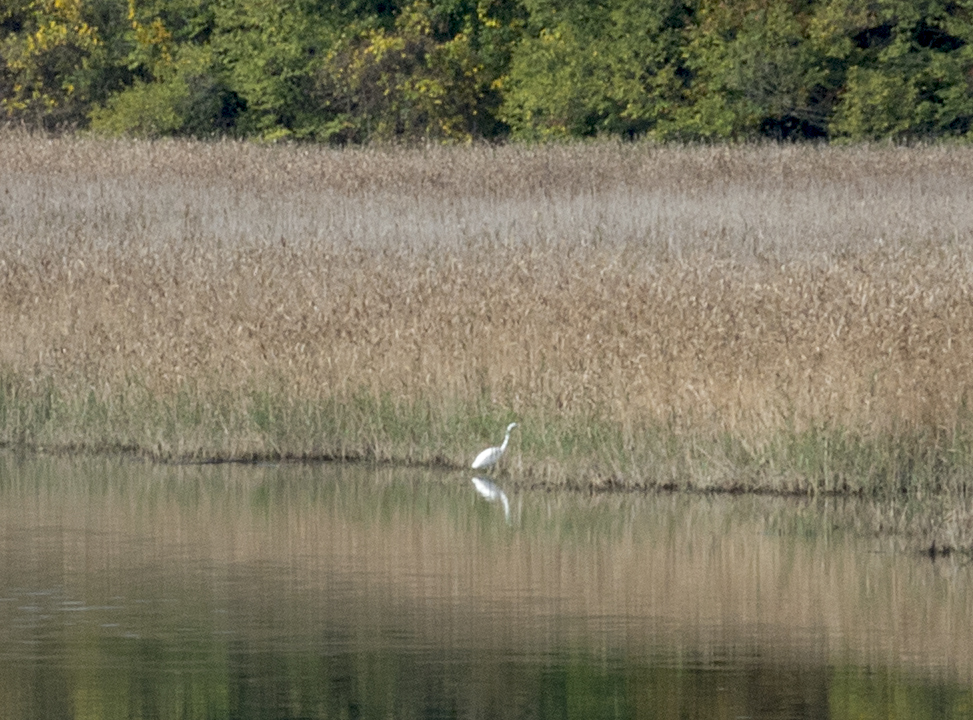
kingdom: Animalia
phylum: Chordata
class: Aves
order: Pelecaniformes
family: Ardeidae
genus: Ardea
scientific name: Ardea alba
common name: Great egret
